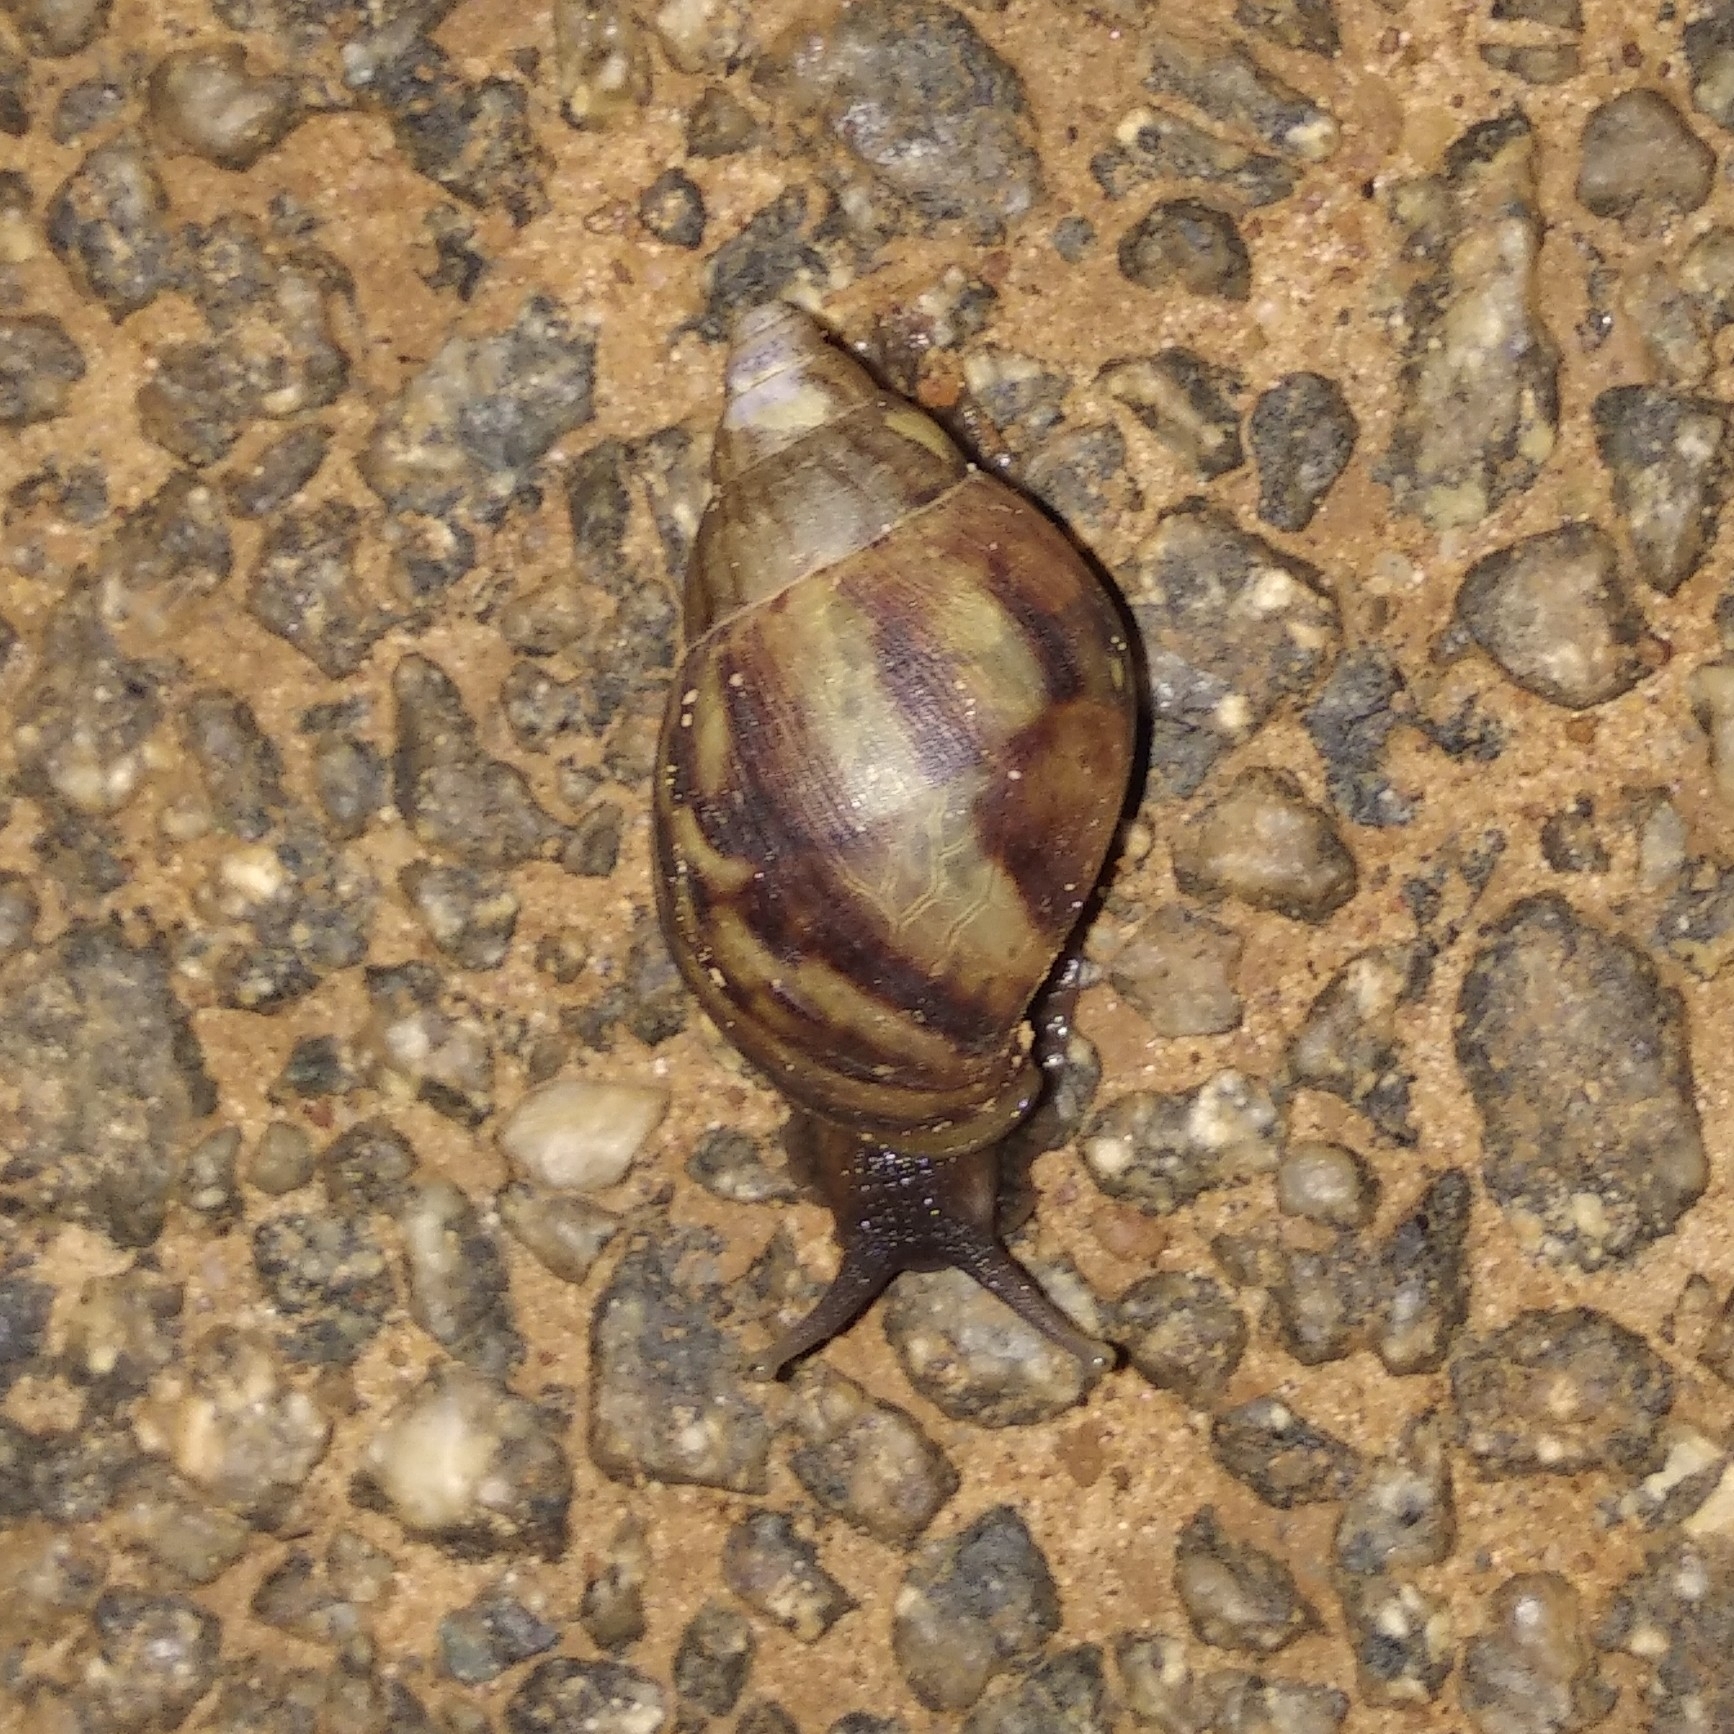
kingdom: Animalia
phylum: Mollusca
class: Gastropoda
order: Stylommatophora
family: Achatinidae
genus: Lissachatina
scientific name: Lissachatina fulica
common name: Giant african snail
